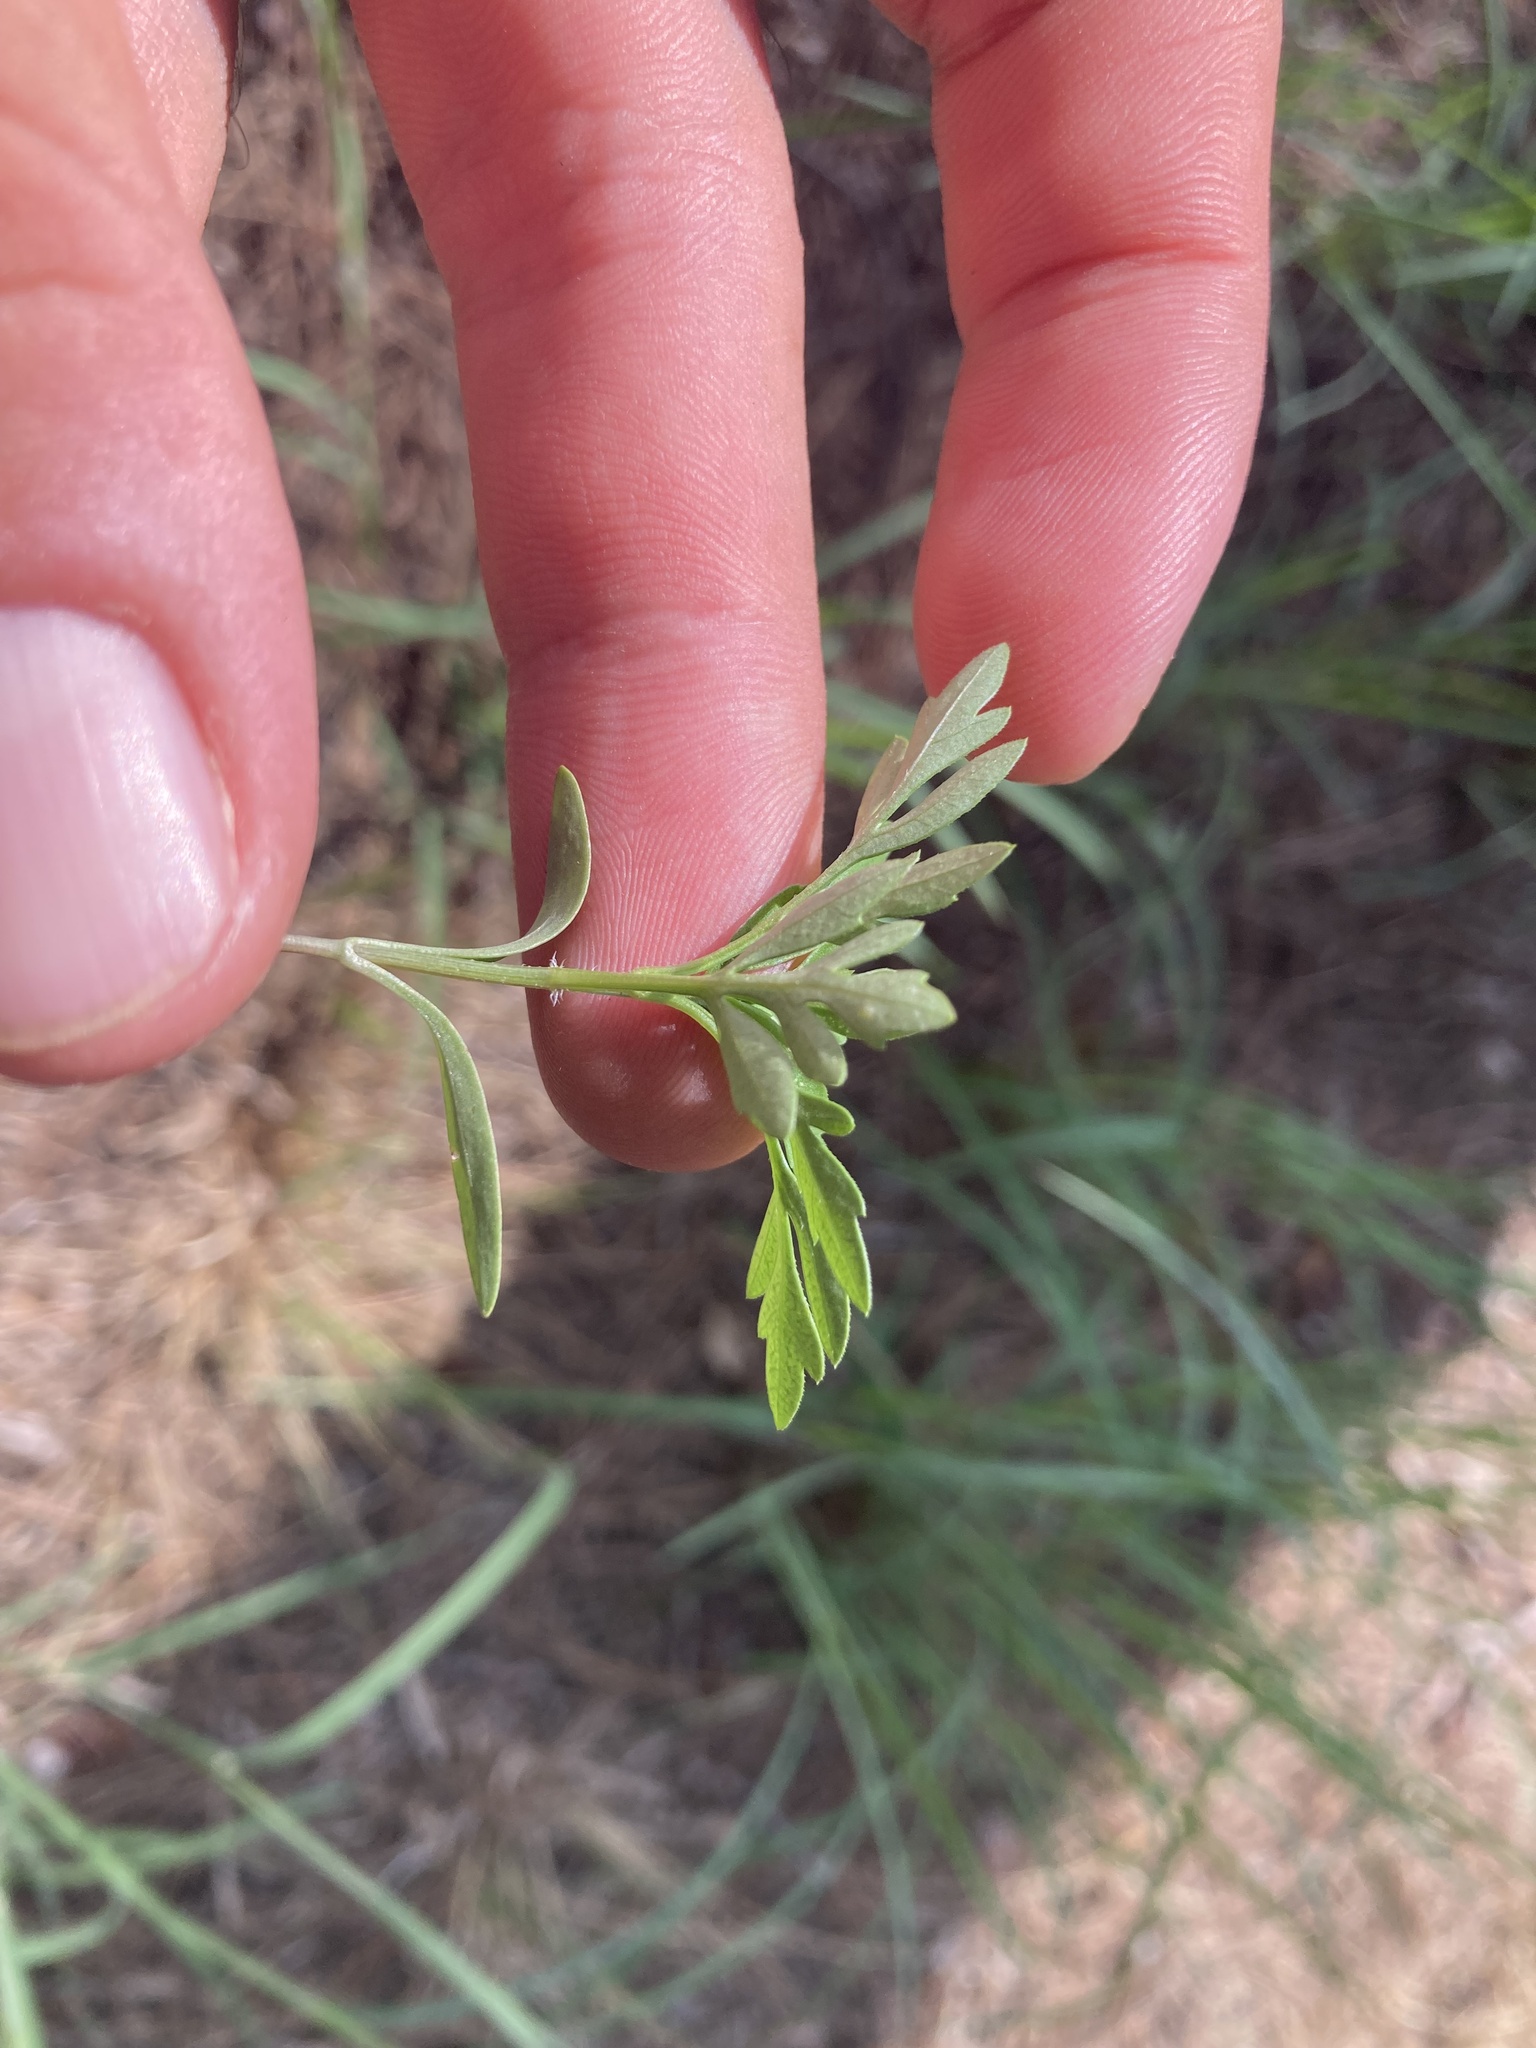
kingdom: Plantae
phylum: Tracheophyta
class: Magnoliopsida
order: Asterales
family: Asteraceae
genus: Bidens
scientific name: Bidens subalternans
